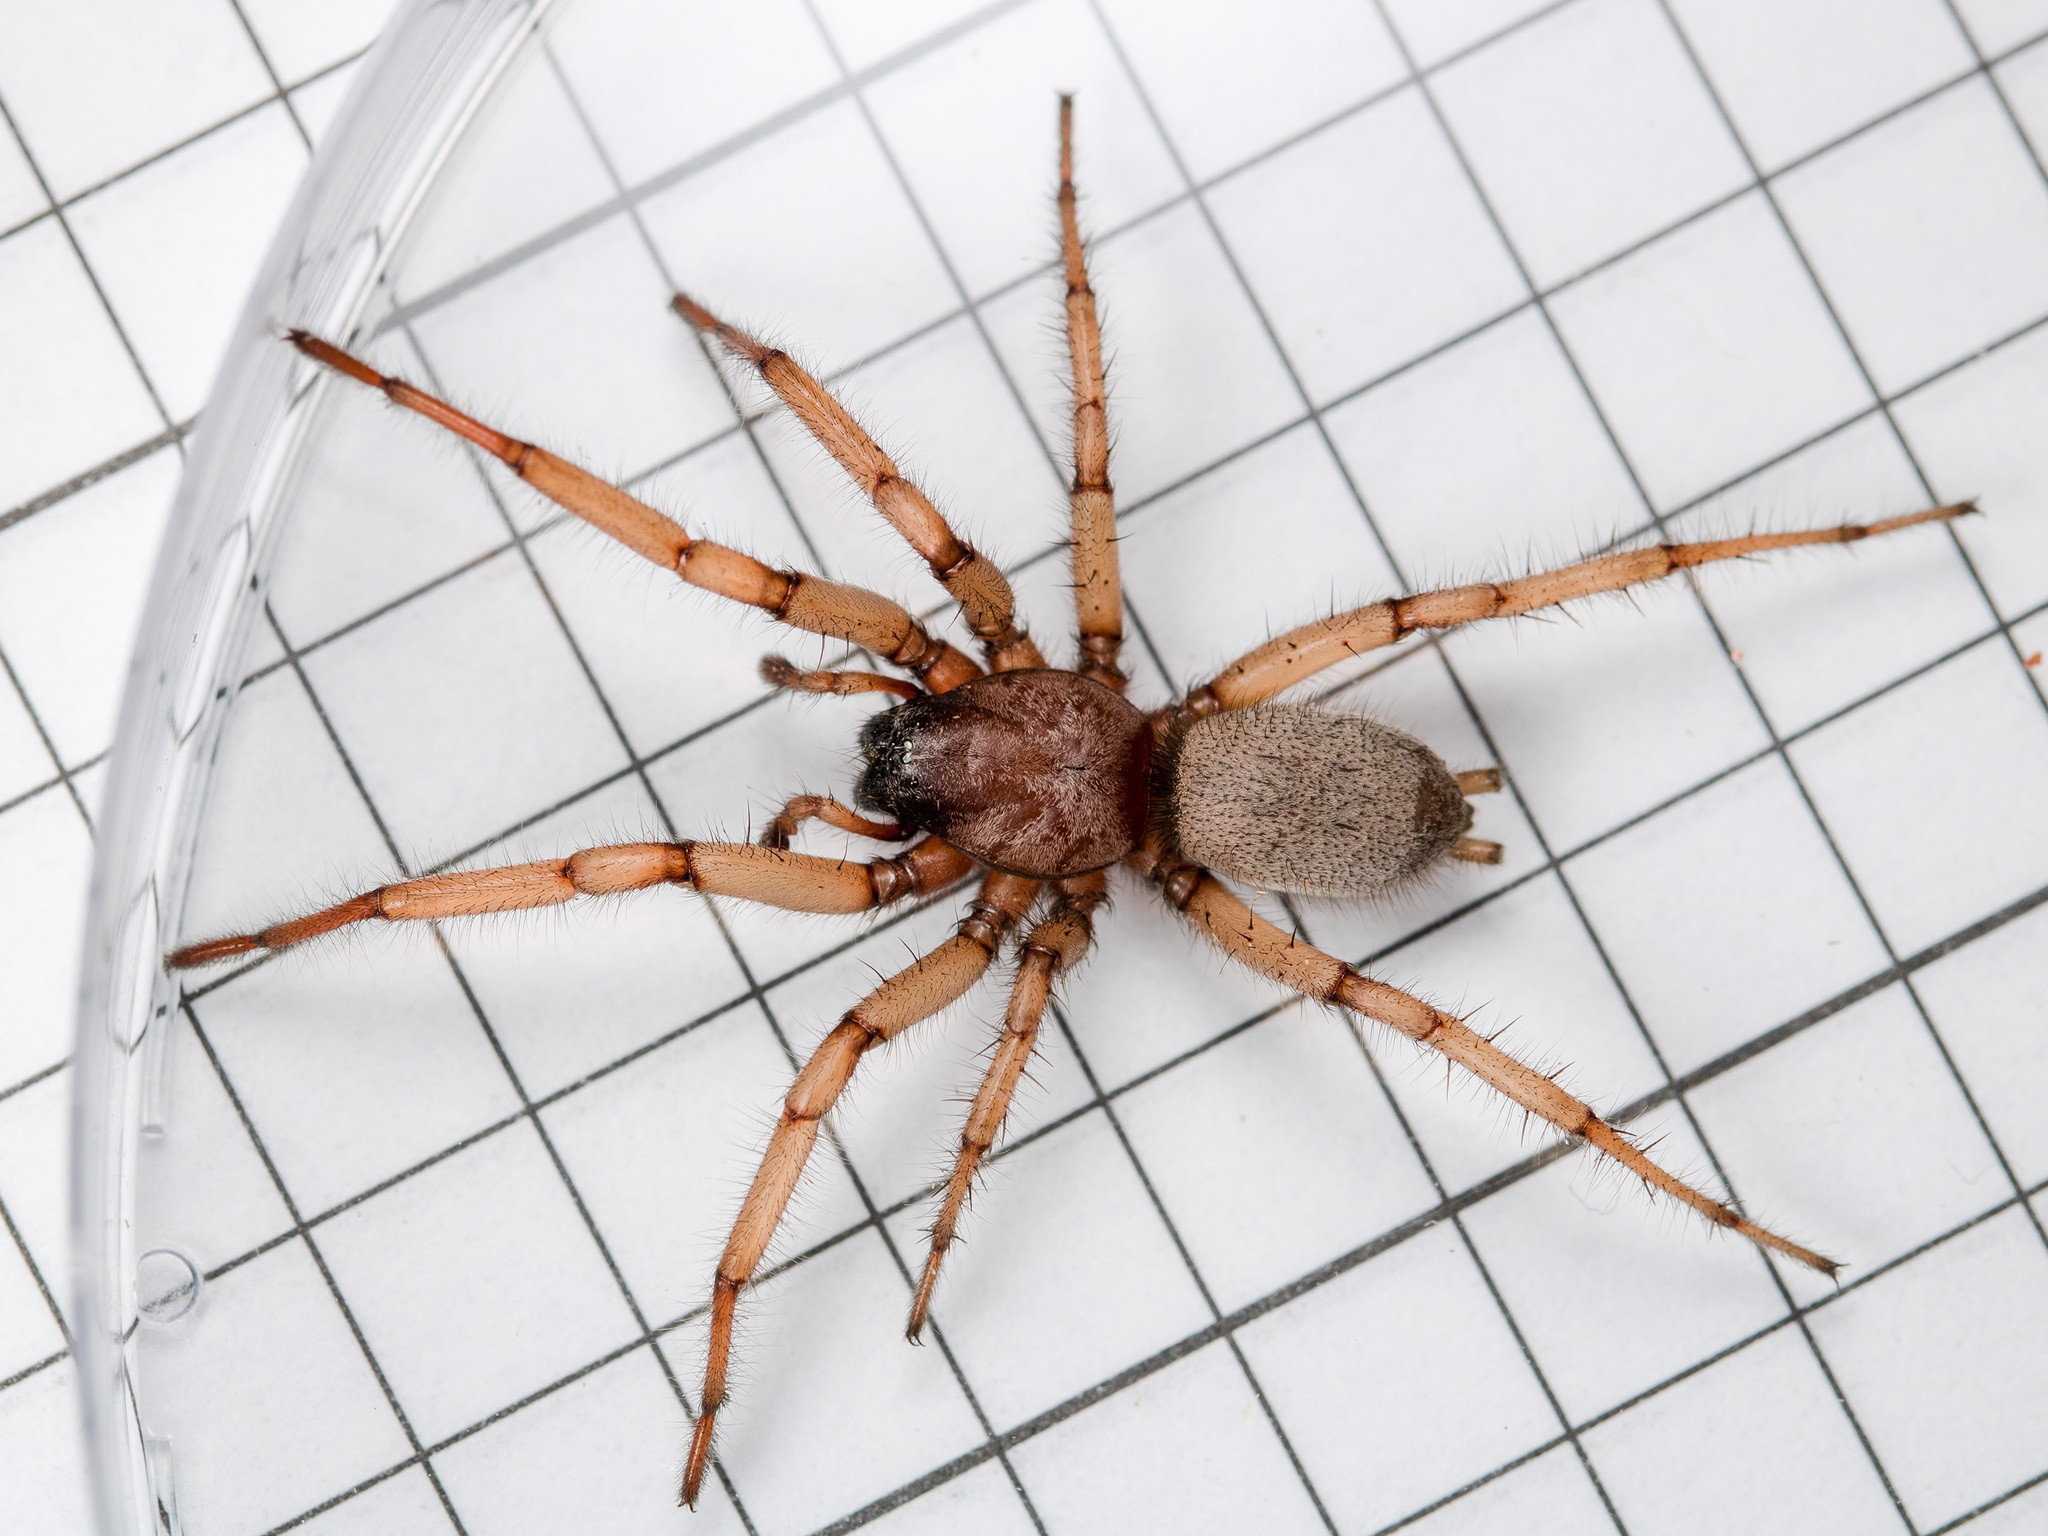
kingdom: Animalia
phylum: Arthropoda
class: Arachnida
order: Araneae
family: Gnaphosidae
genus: Gnaphosa
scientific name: Gnaphosa fagei
